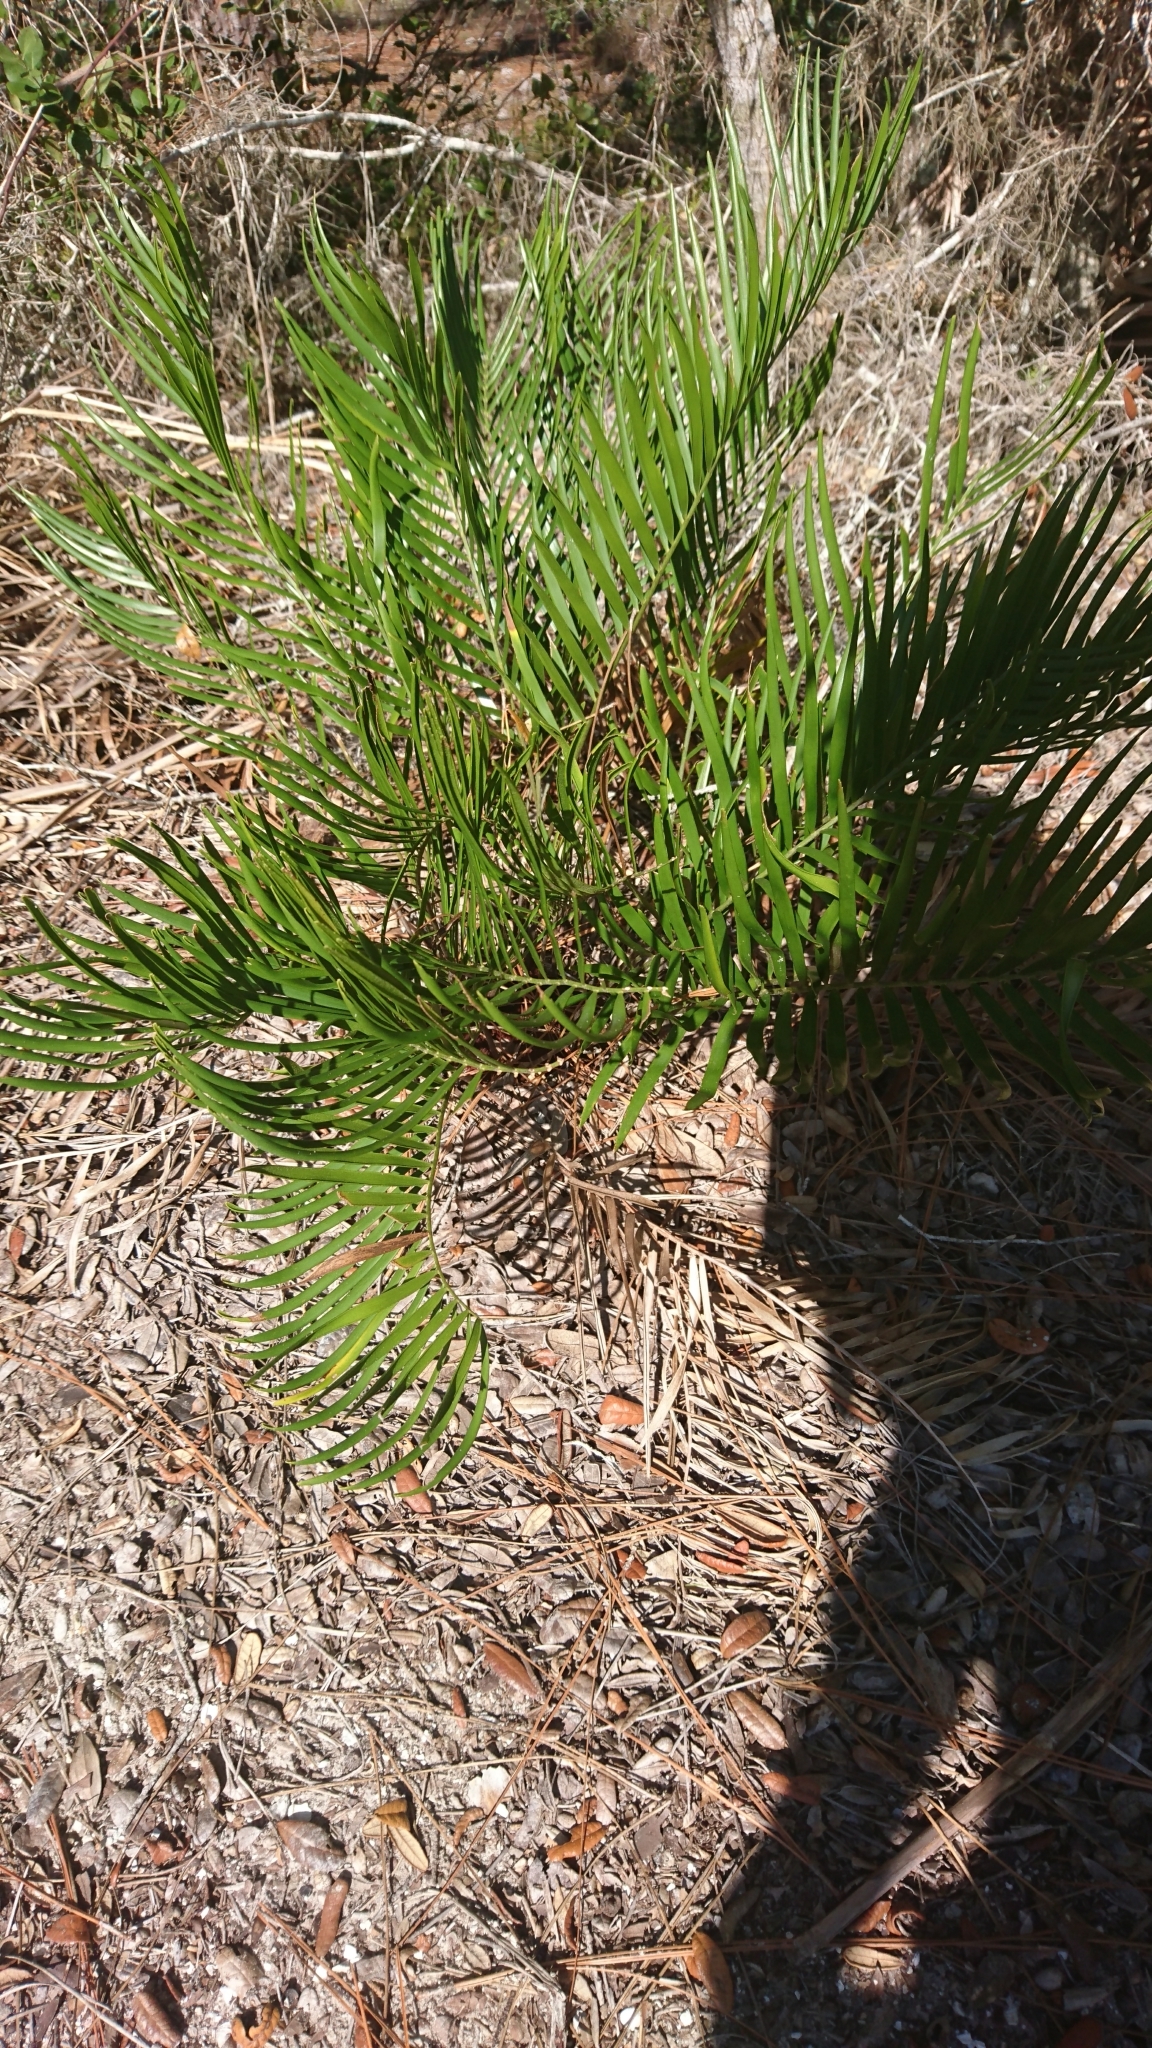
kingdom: Plantae
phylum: Tracheophyta
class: Cycadopsida
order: Cycadales
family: Zamiaceae
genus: Zamia
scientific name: Zamia integrifolia
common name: Florida arrowroot
